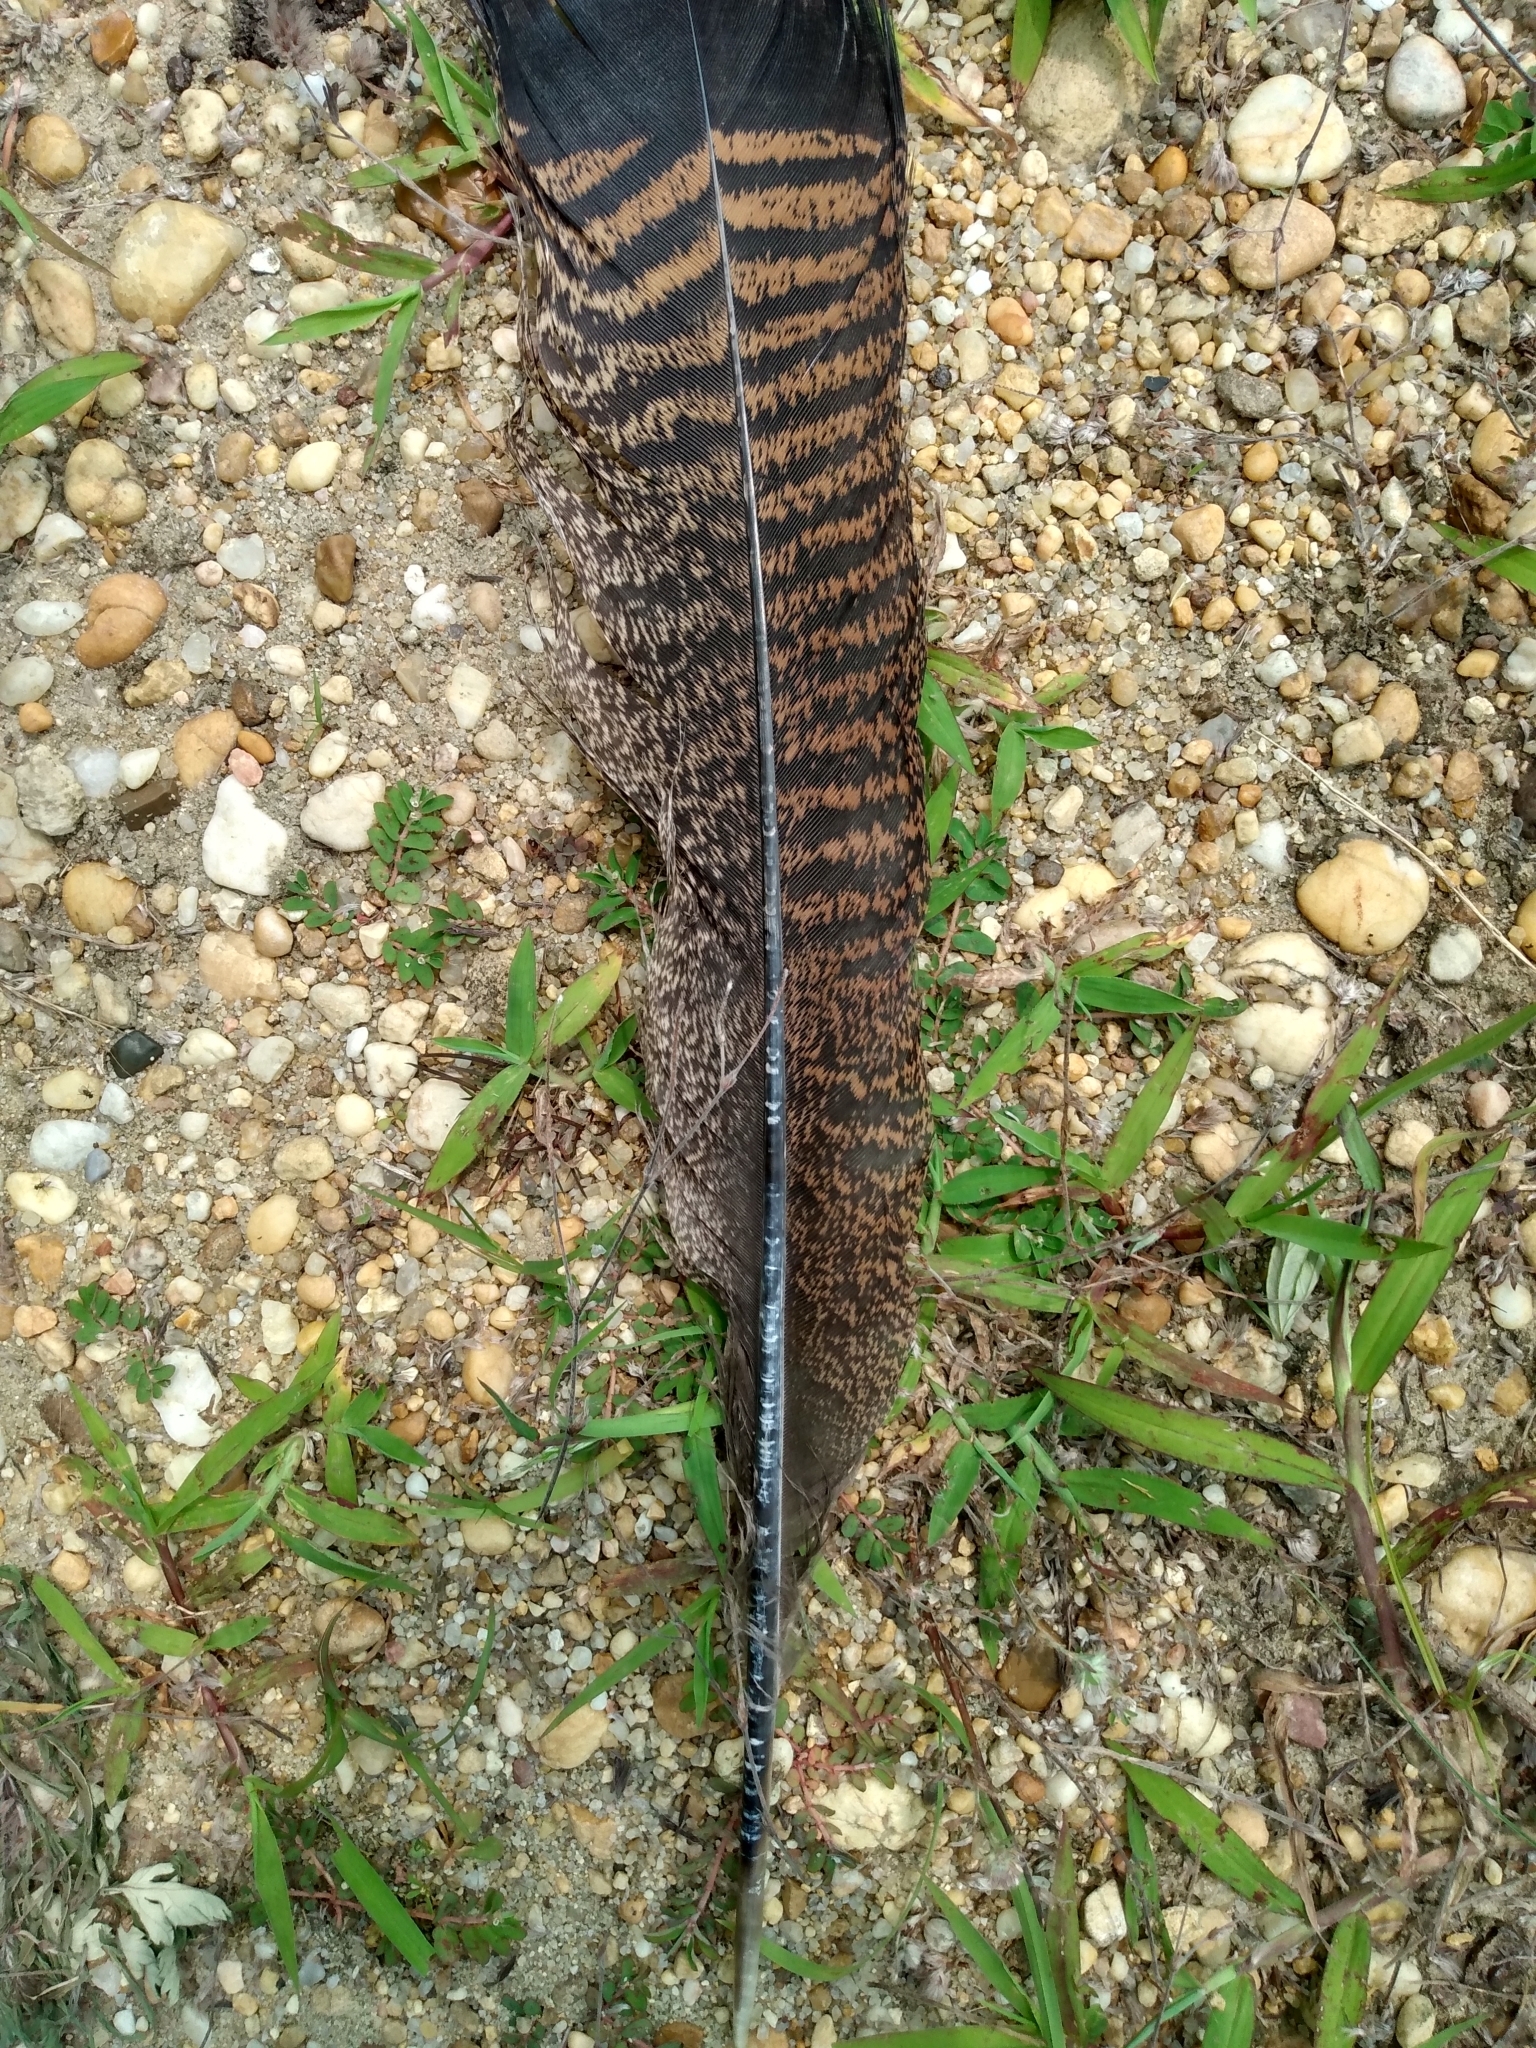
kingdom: Animalia
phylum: Chordata
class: Aves
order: Galliformes
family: Phasianidae
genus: Meleagris
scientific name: Meleagris gallopavo
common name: Wild turkey
